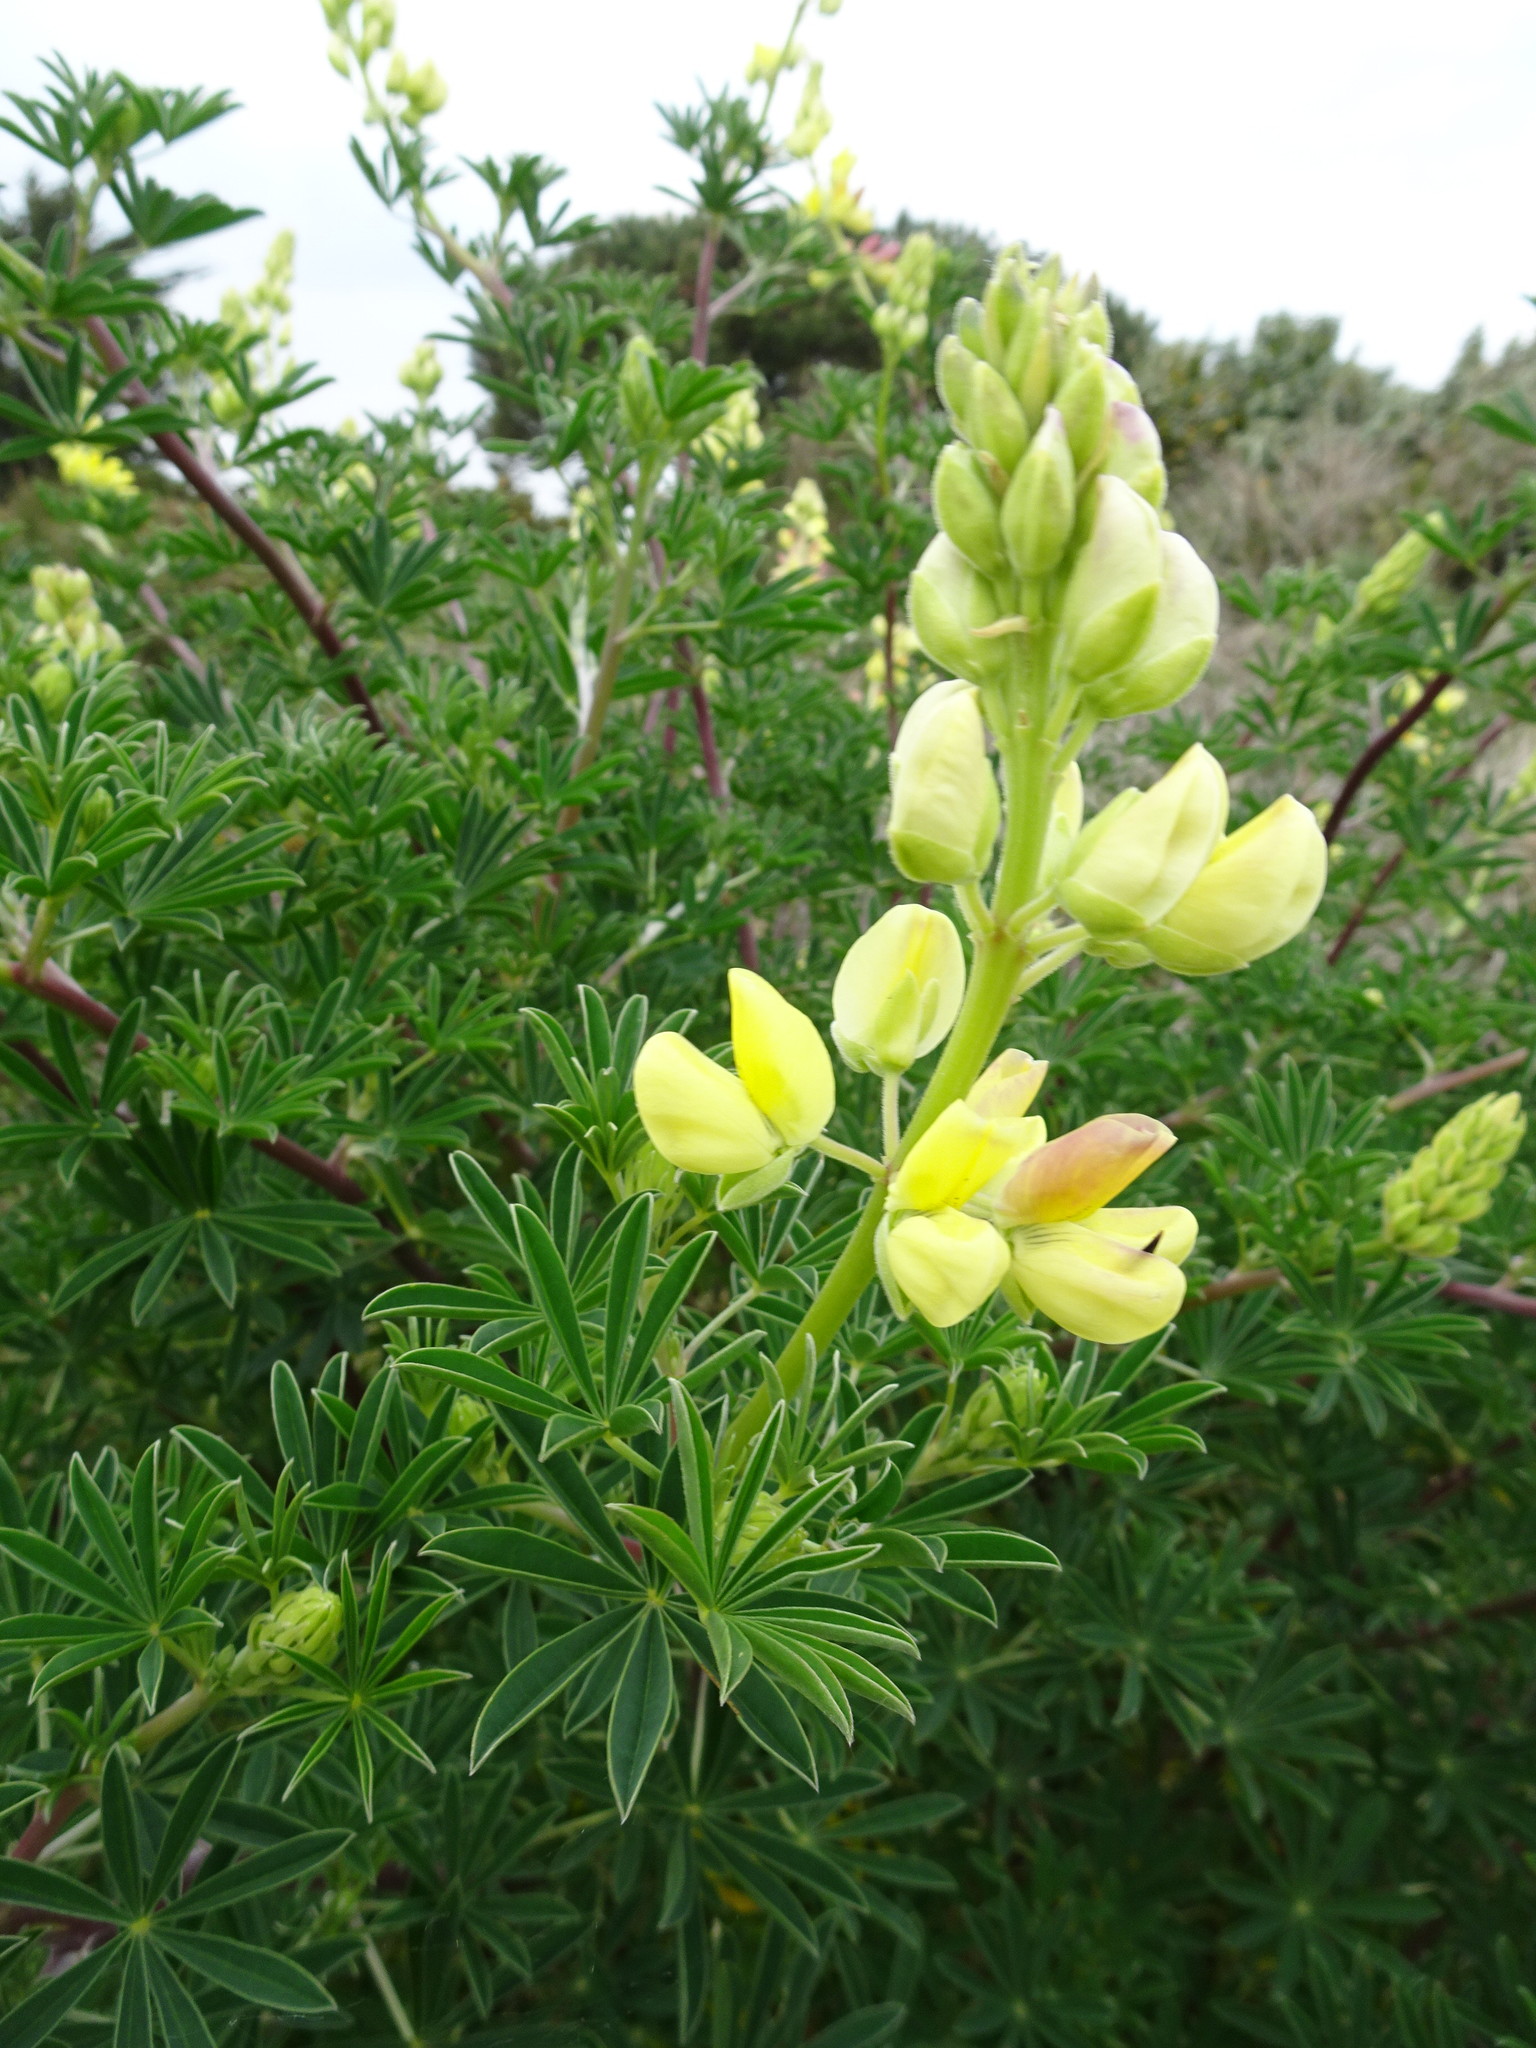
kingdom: Plantae
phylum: Tracheophyta
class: Magnoliopsida
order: Fabales
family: Fabaceae
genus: Lupinus
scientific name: Lupinus arboreus
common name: Yellow bush lupine
